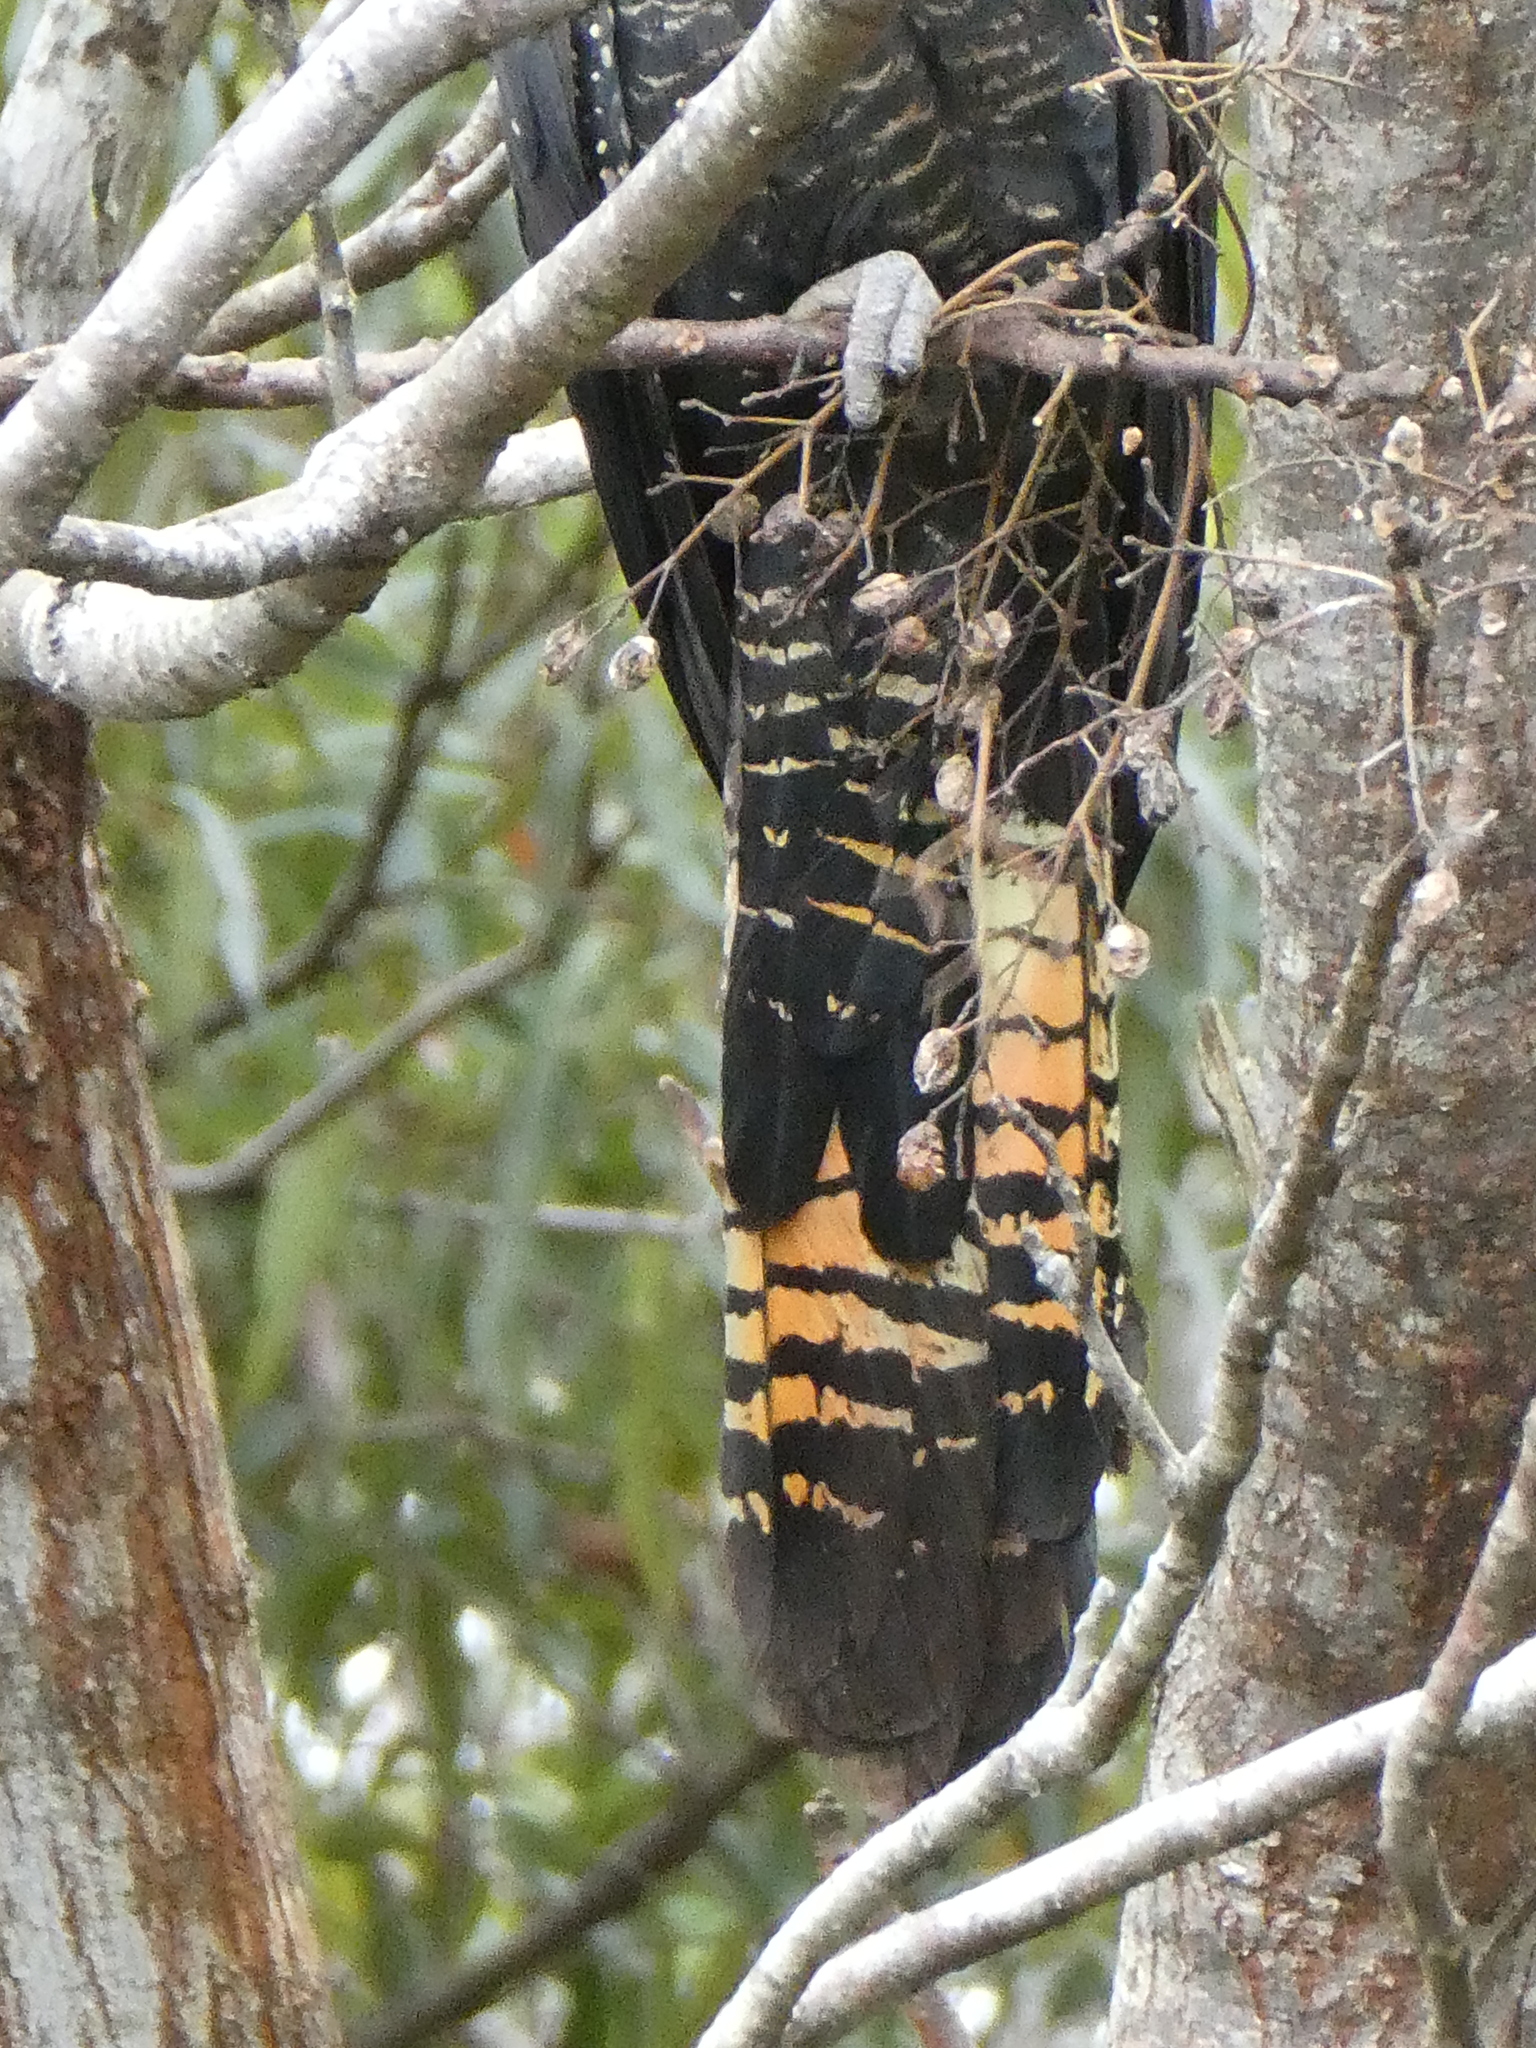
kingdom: Animalia
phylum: Chordata
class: Aves
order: Psittaciformes
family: Psittacidae
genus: Calyptorhynchus
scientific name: Calyptorhynchus banksii
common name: Red-tailed black cockatoo
